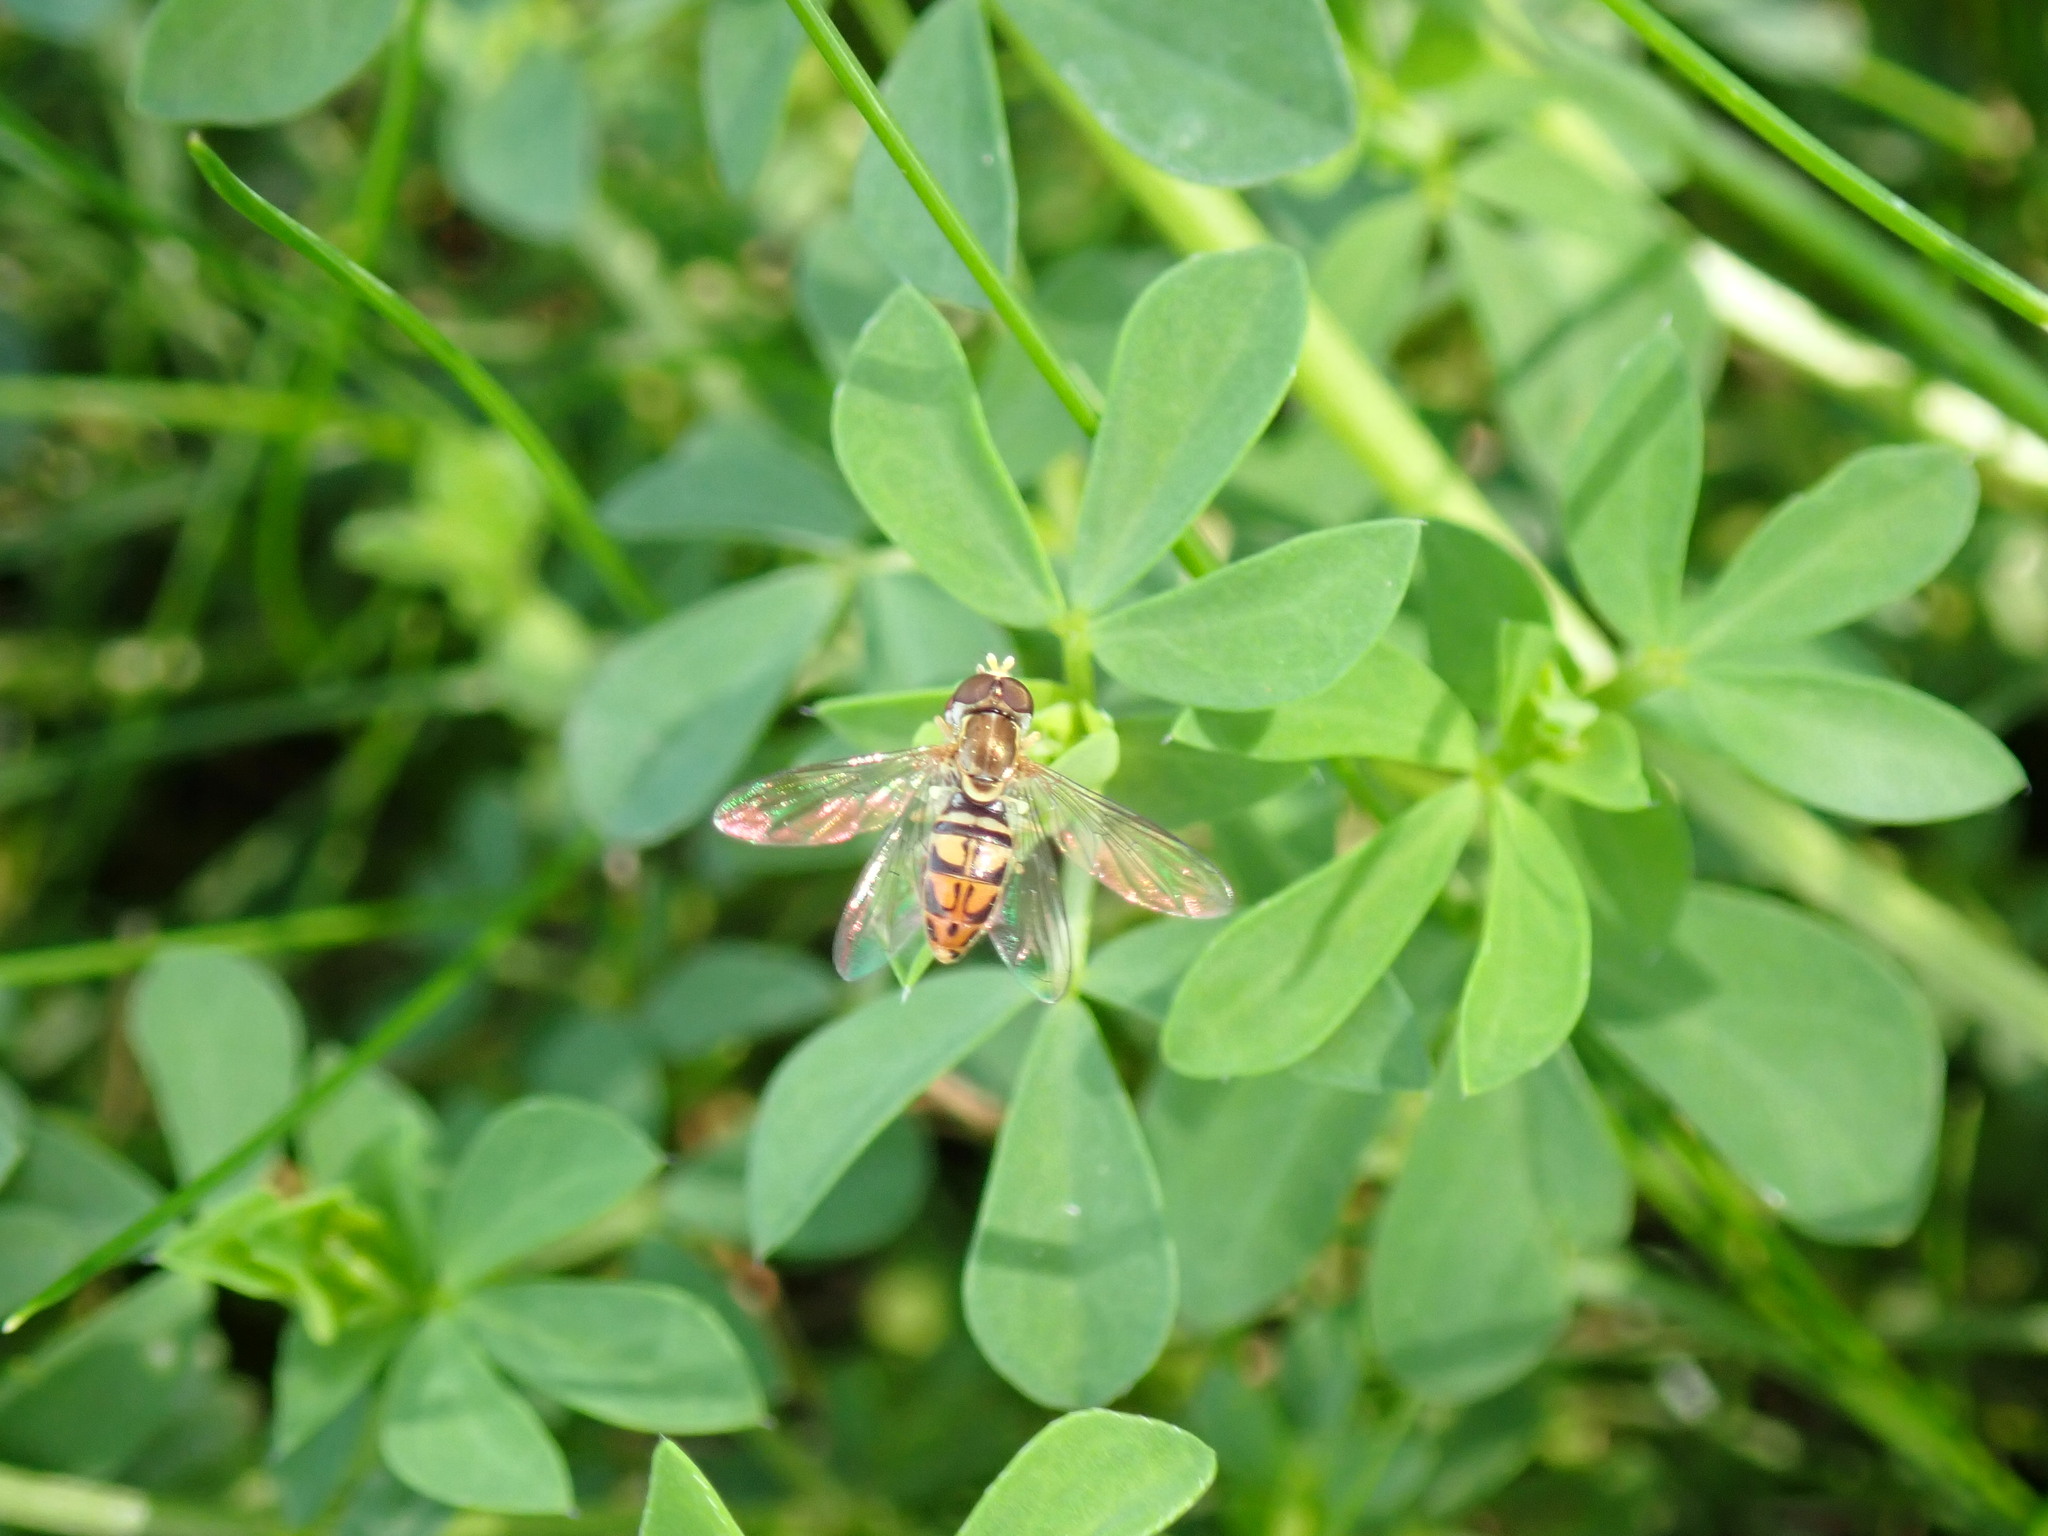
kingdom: Animalia
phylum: Arthropoda
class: Insecta
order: Diptera
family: Syrphidae
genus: Toxomerus
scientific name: Toxomerus marginatus
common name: Syrphid fly
